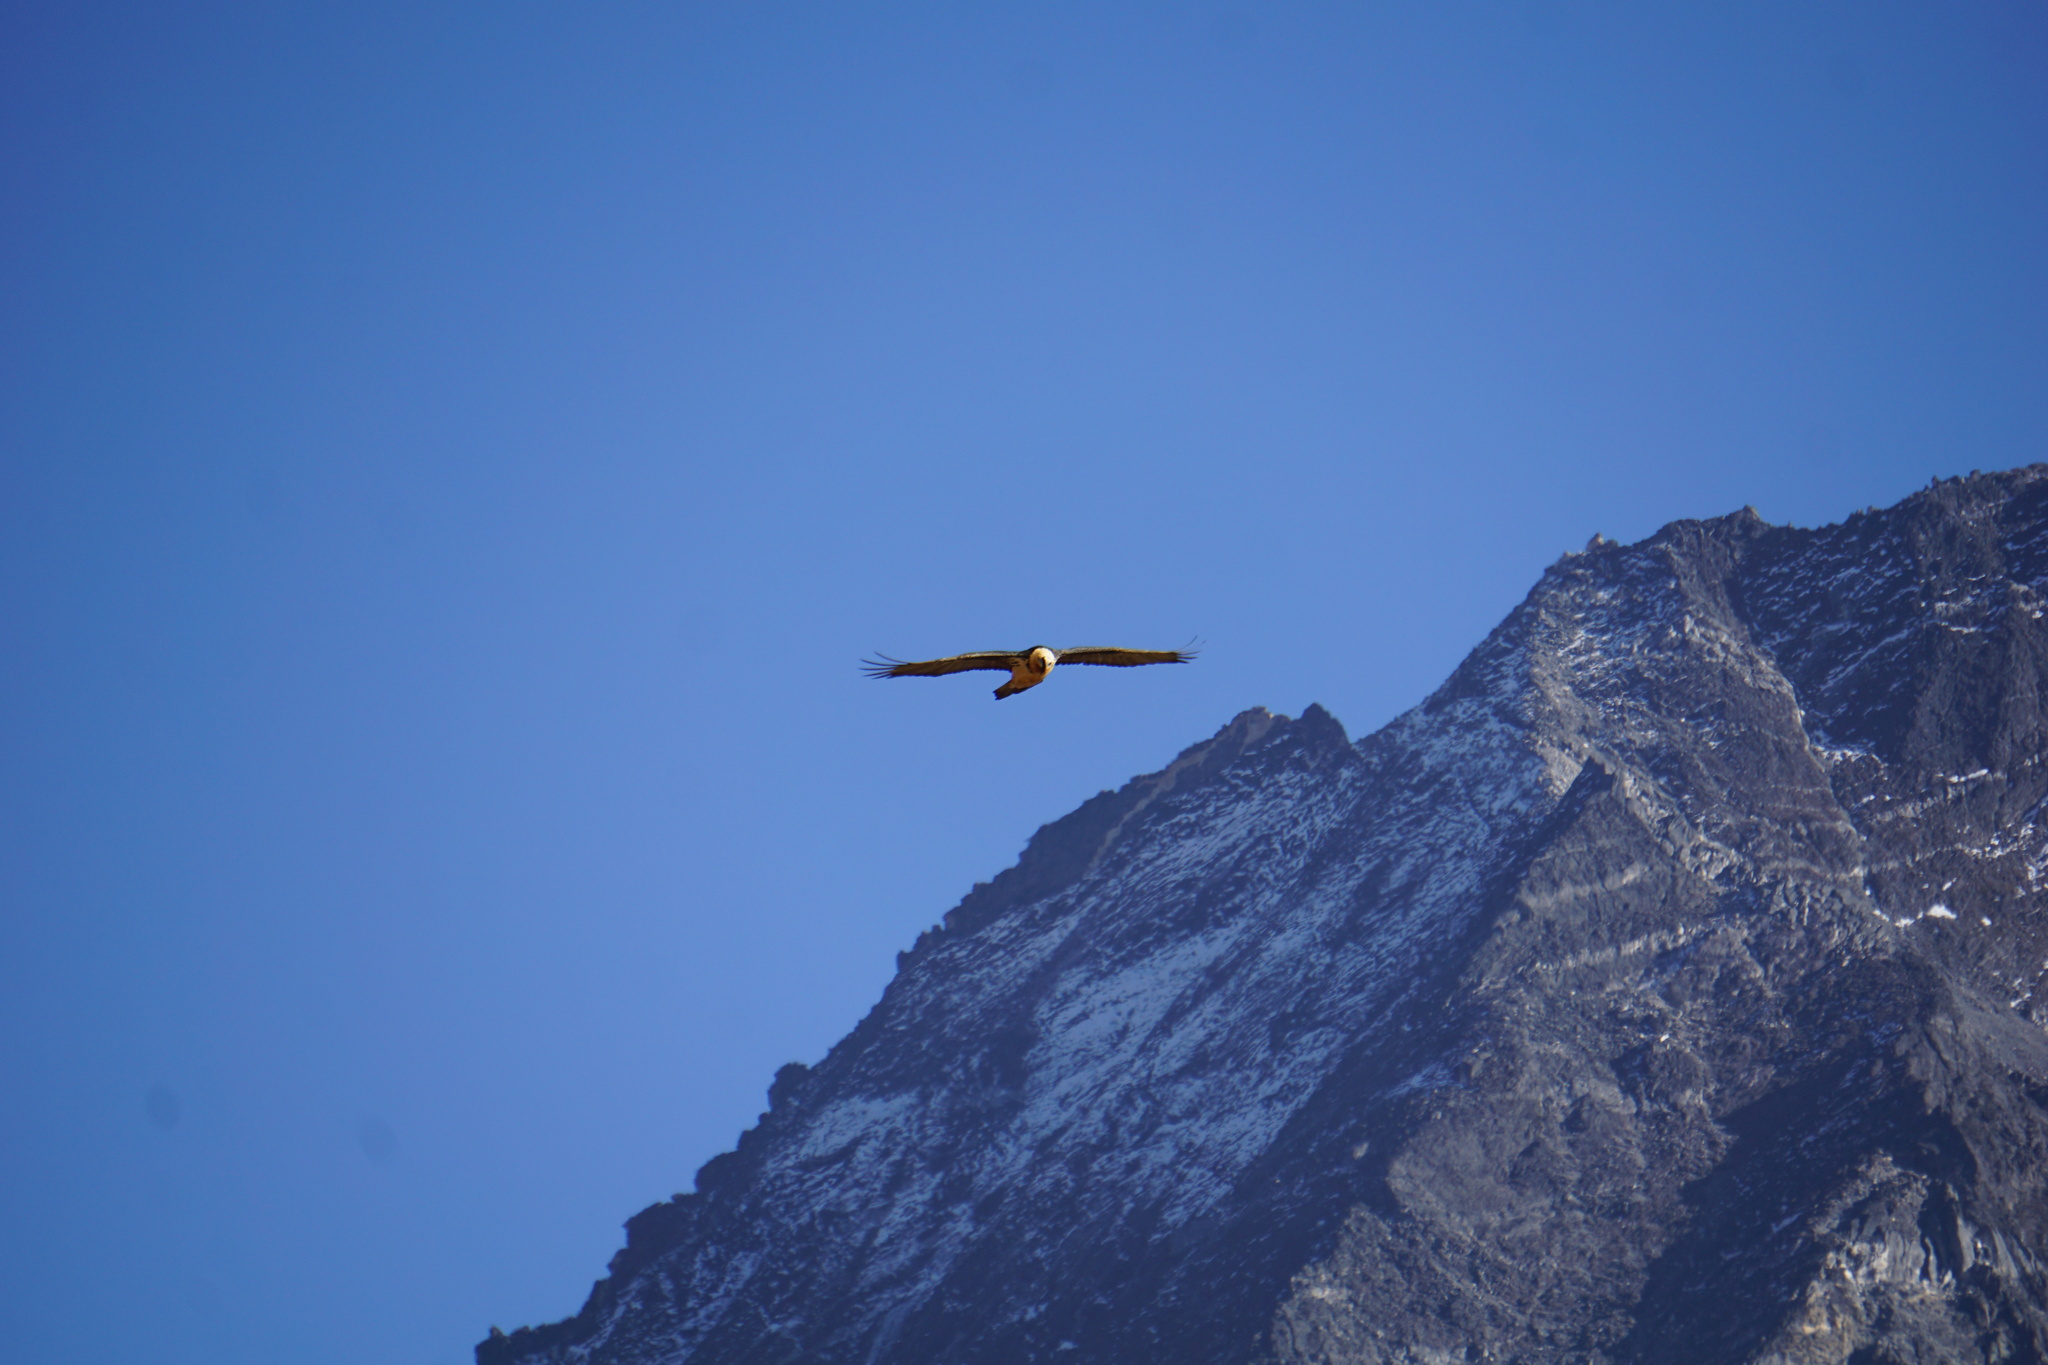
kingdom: Animalia
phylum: Chordata
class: Aves
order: Accipitriformes
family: Accipitridae
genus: Gypaetus
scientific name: Gypaetus barbatus
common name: Bearded vulture
